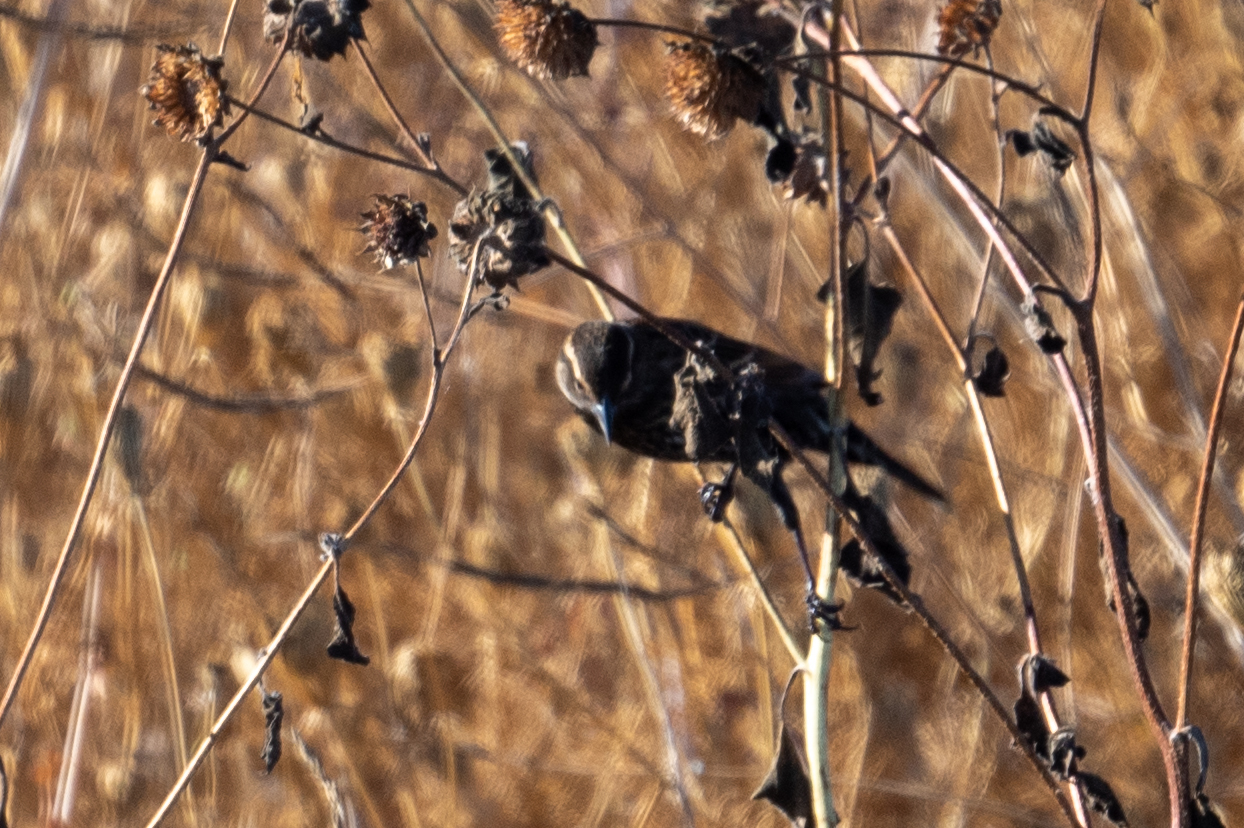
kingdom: Animalia
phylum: Chordata
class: Aves
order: Passeriformes
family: Icteridae
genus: Agelaius
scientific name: Agelaius phoeniceus
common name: Red-winged blackbird
